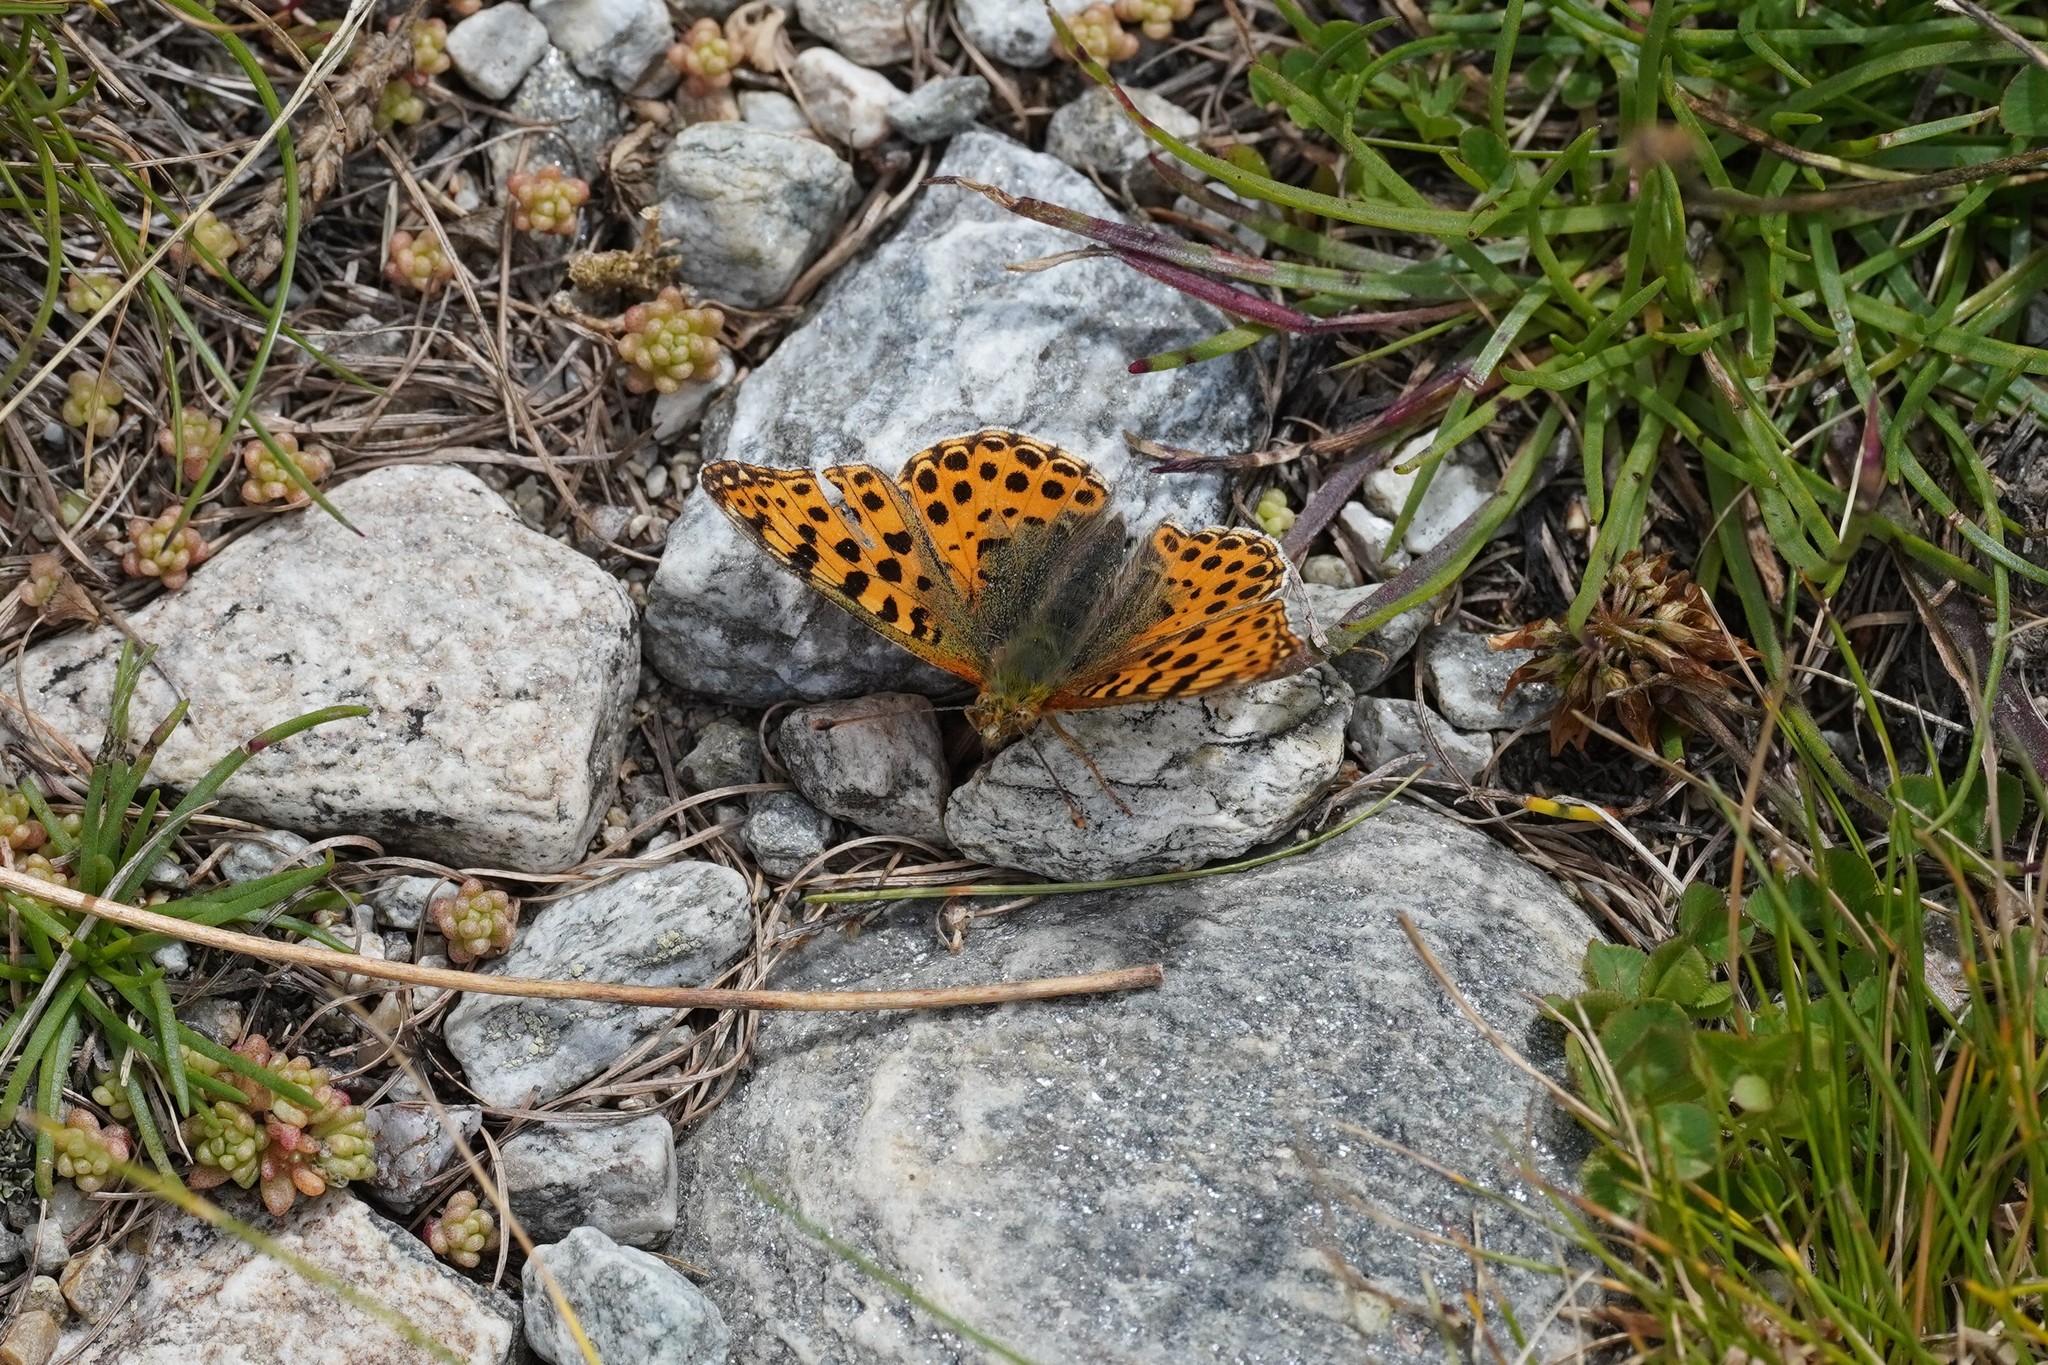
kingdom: Animalia
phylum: Arthropoda
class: Insecta
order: Lepidoptera
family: Nymphalidae
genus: Issoria
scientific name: Issoria lathonia
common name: Queen of spain fritillary
